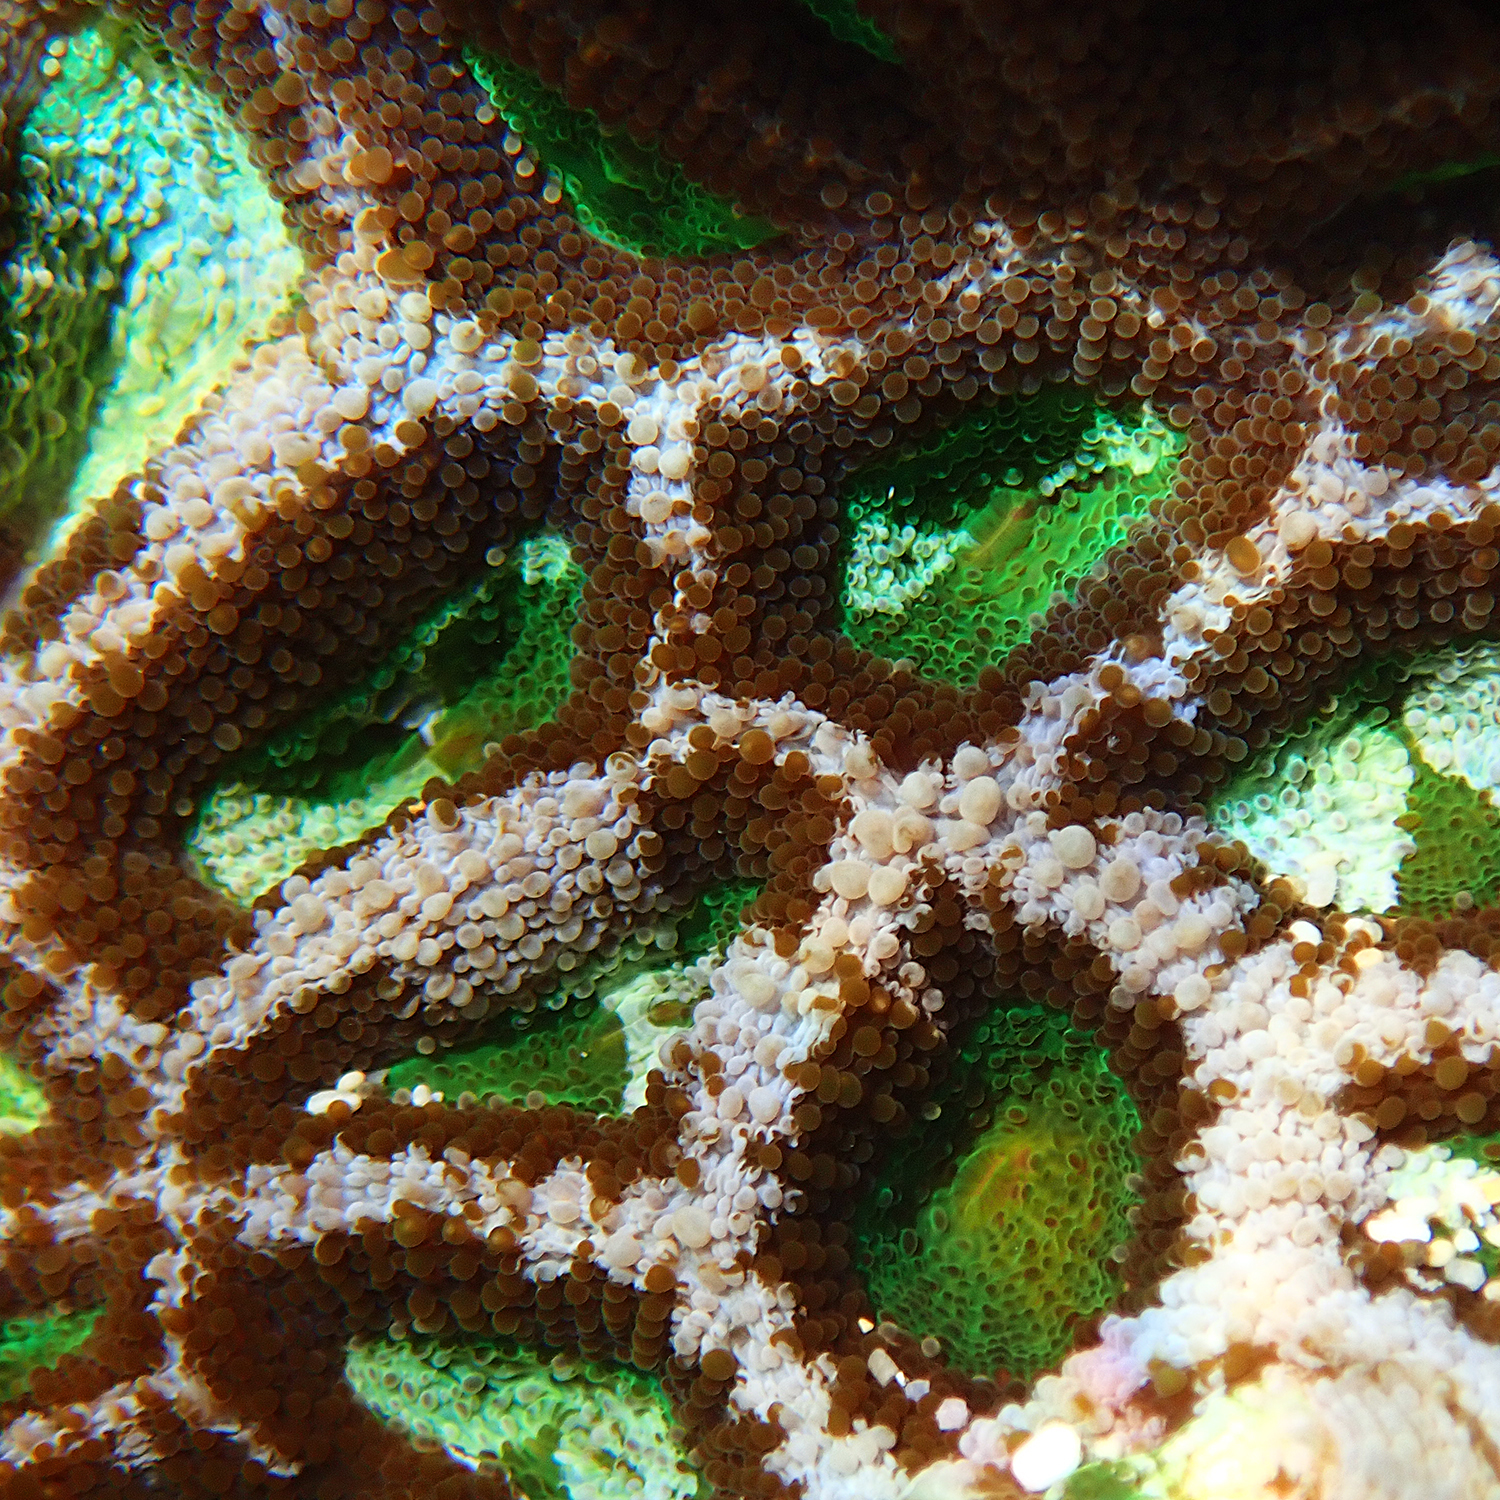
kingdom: Animalia
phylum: Cnidaria
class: Anthozoa
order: Scleractinia
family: Lobophylliidae
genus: Homophyllia
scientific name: Homophyllia bowerbanki
